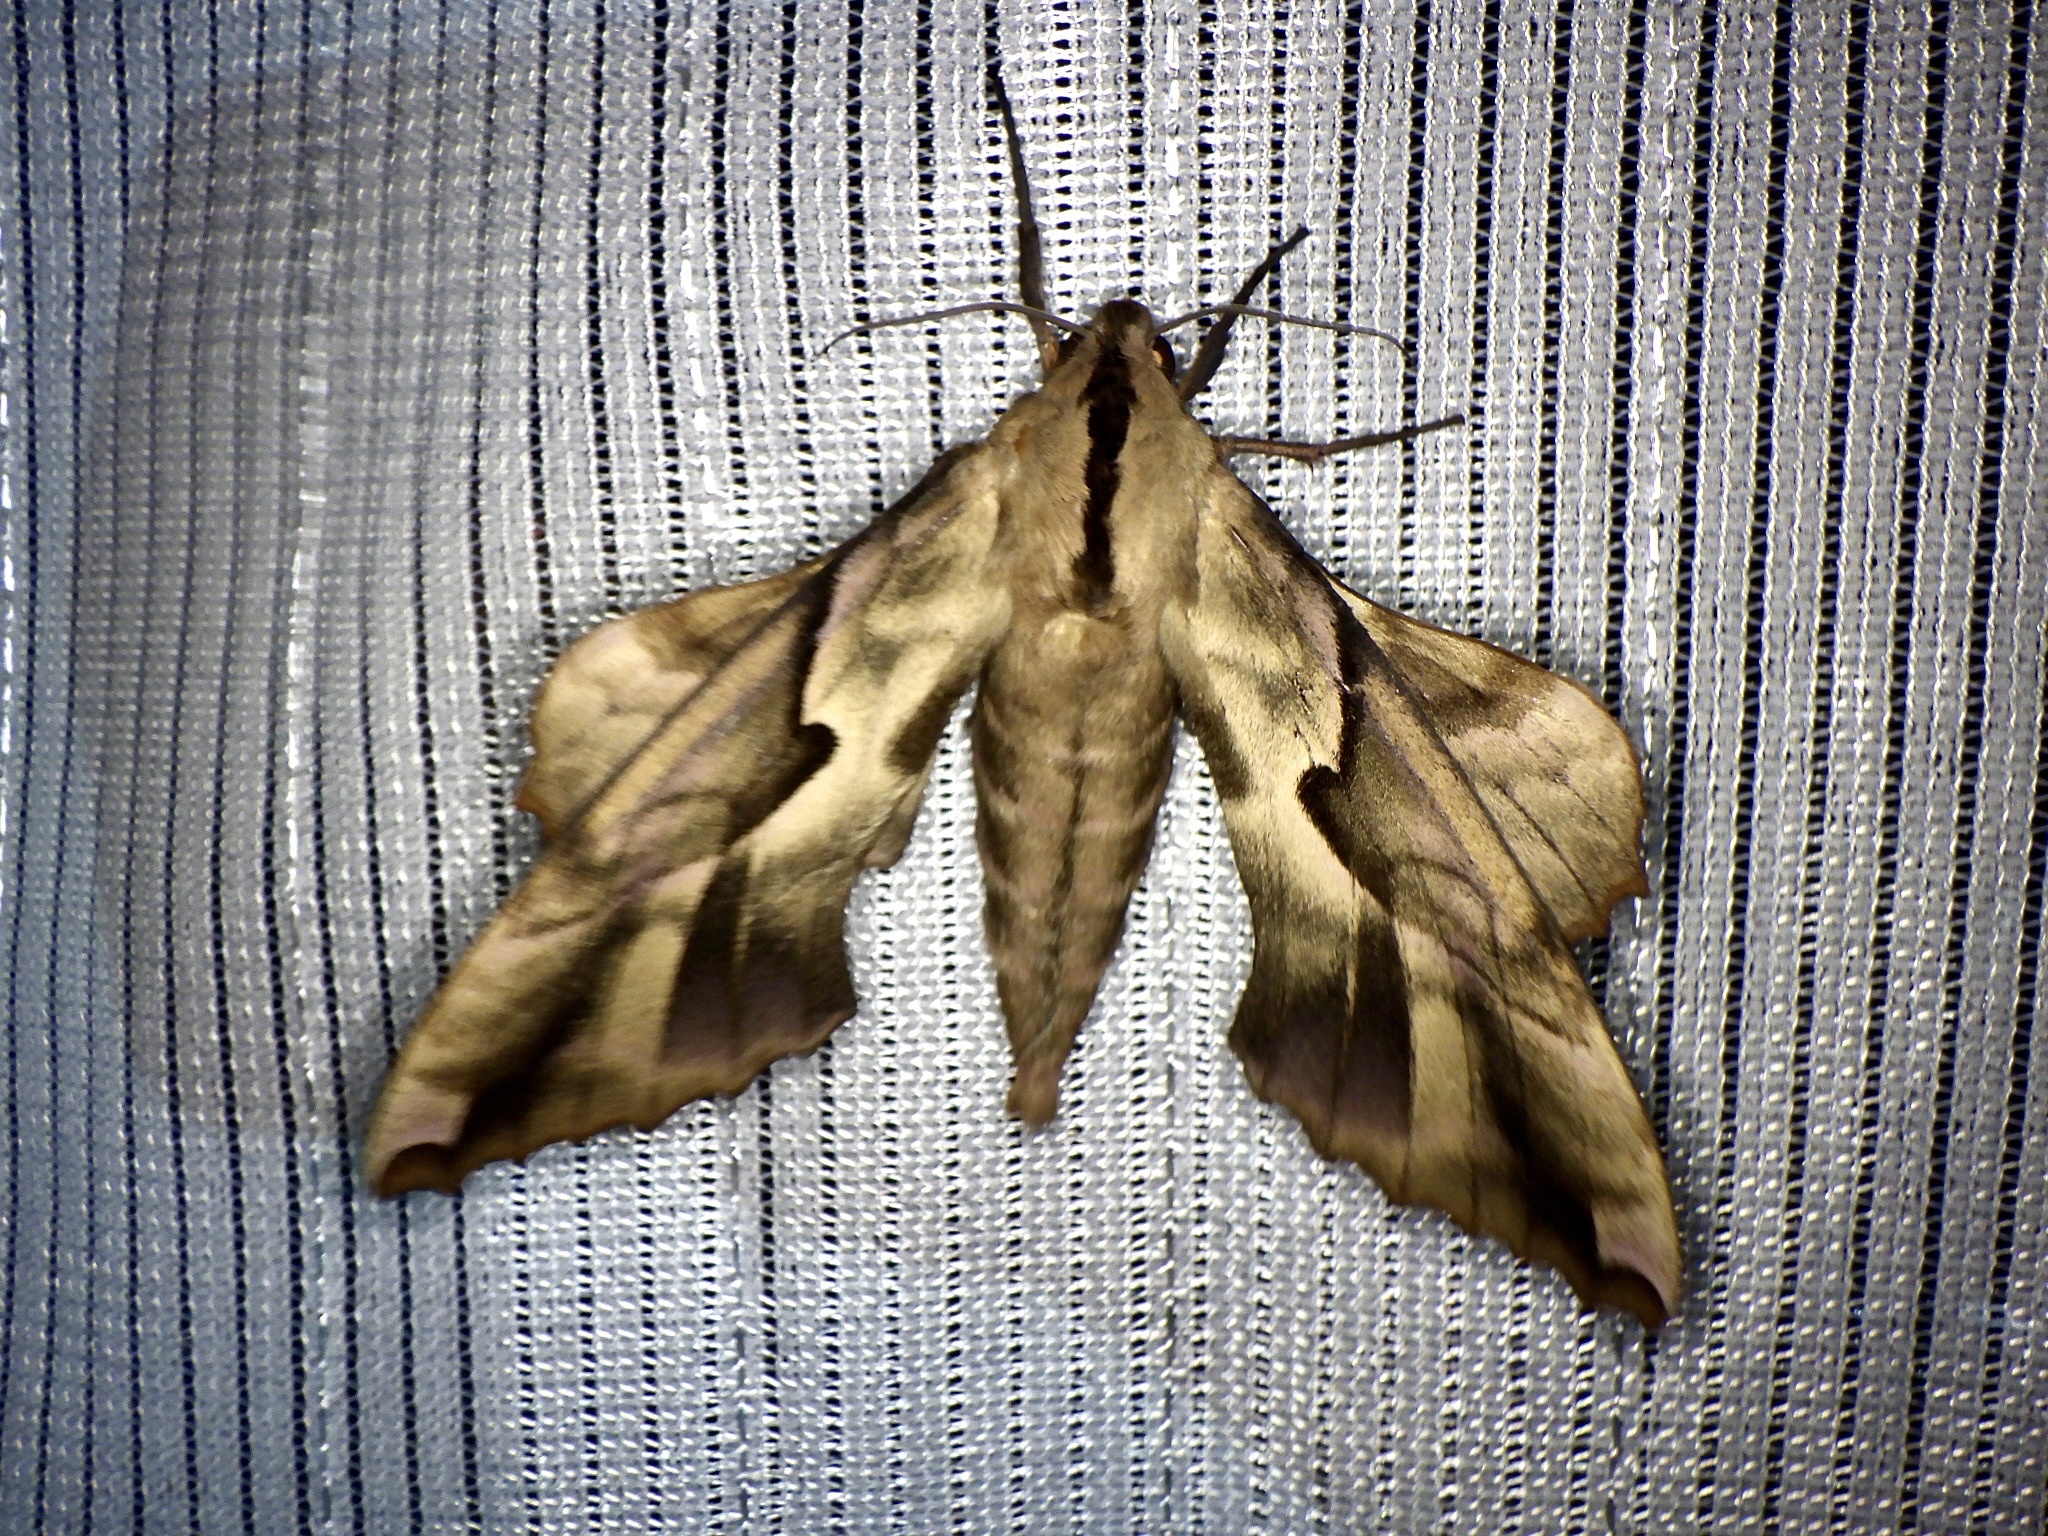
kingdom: Animalia
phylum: Arthropoda
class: Insecta
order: Lepidoptera
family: Sphingidae
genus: Phyllosphingia
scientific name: Phyllosphingia dissimilis
